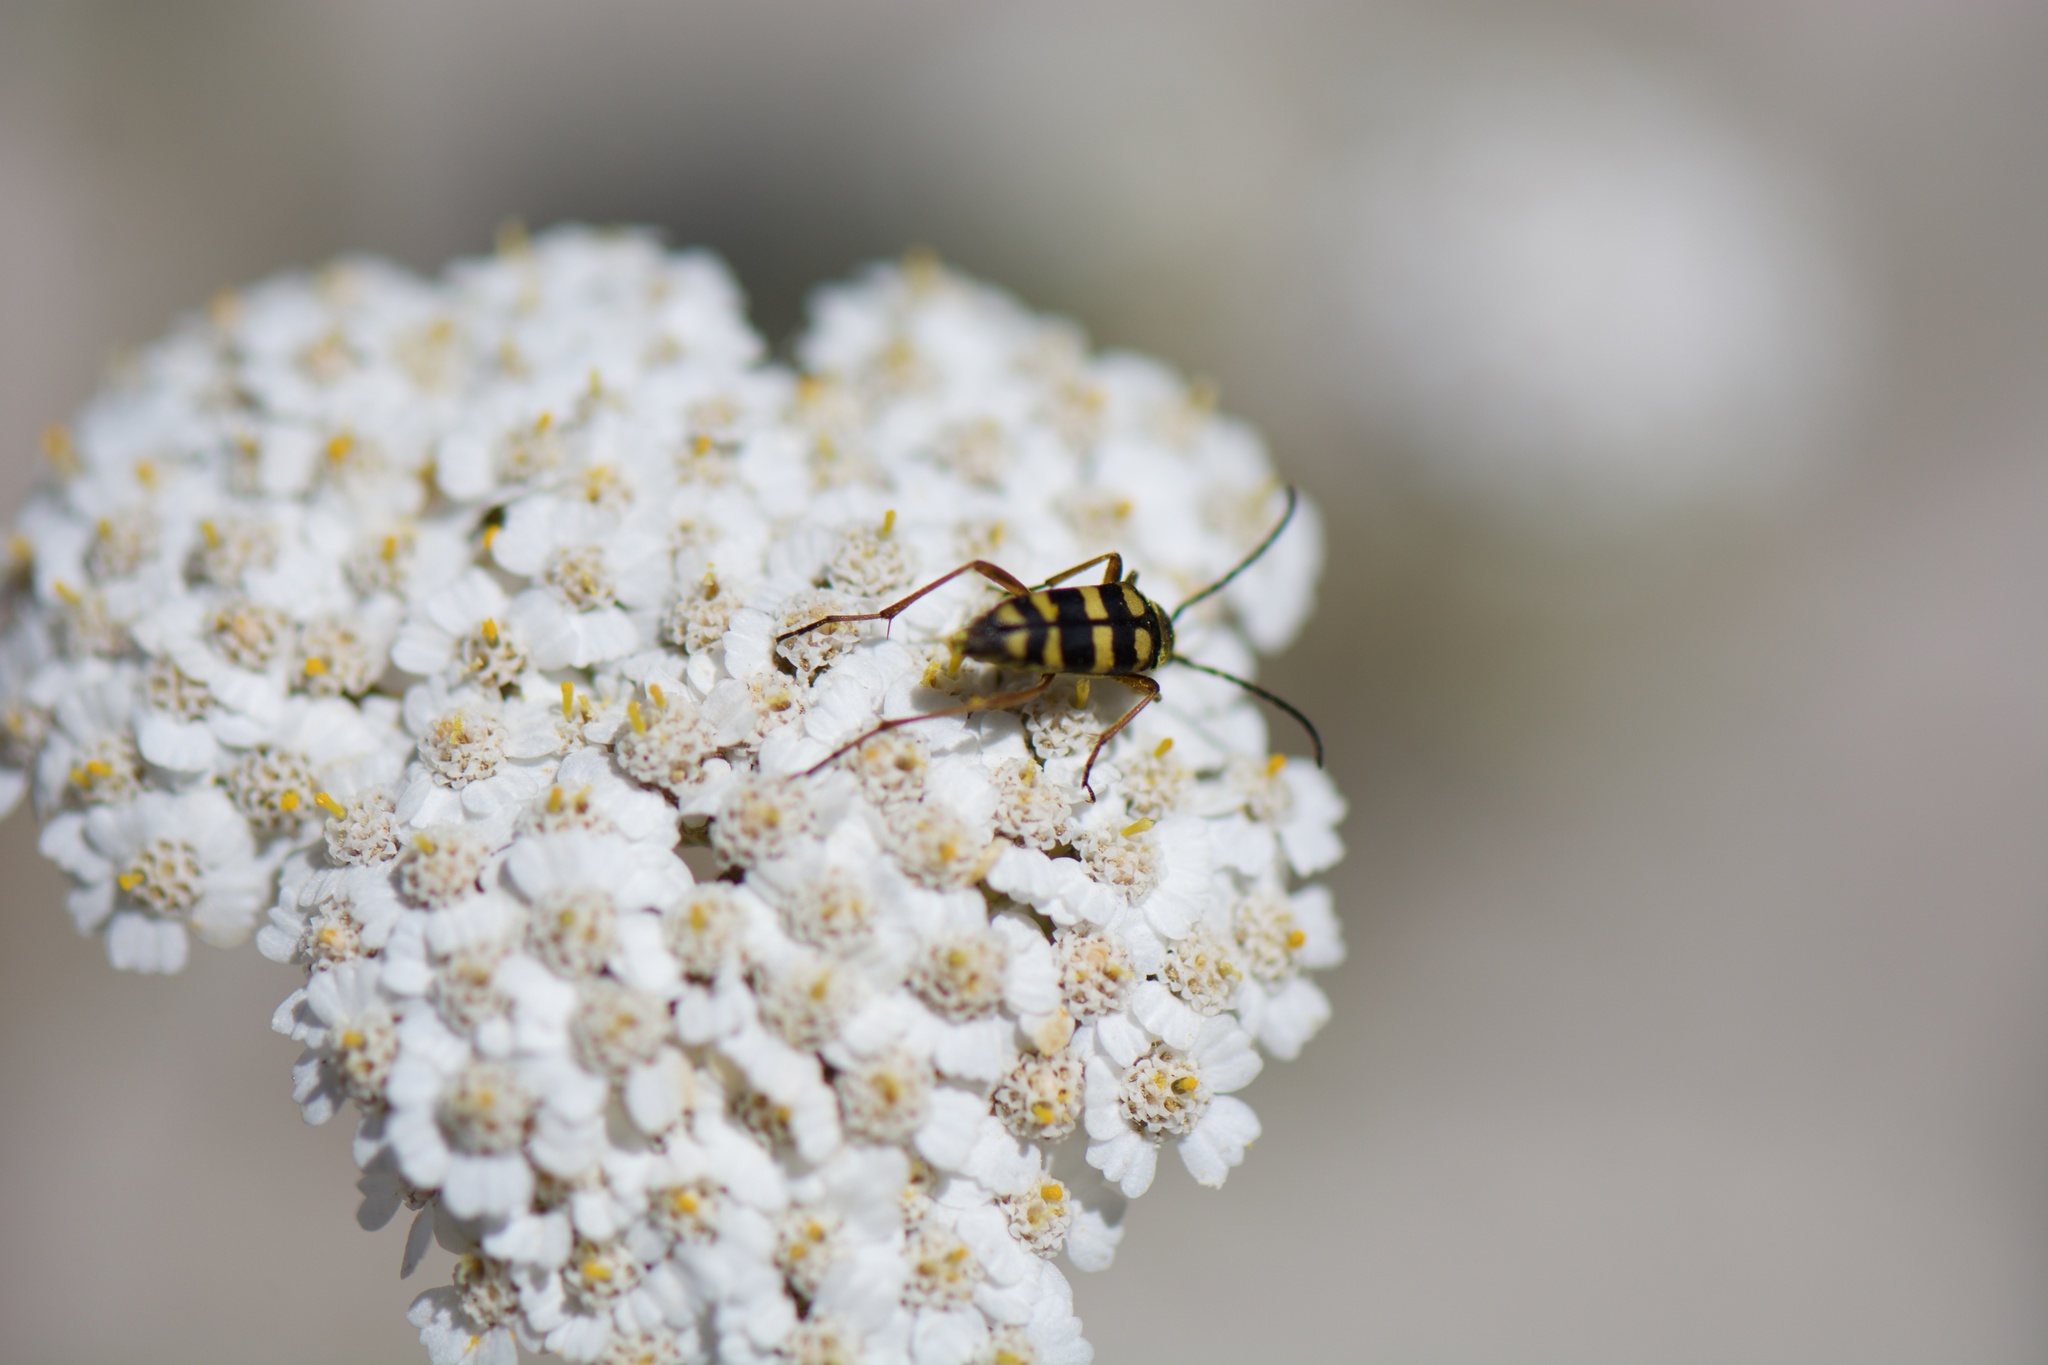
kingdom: Animalia
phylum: Arthropoda
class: Insecta
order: Coleoptera
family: Cerambycidae
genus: Stenostrophia
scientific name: Stenostrophia tribalteata
